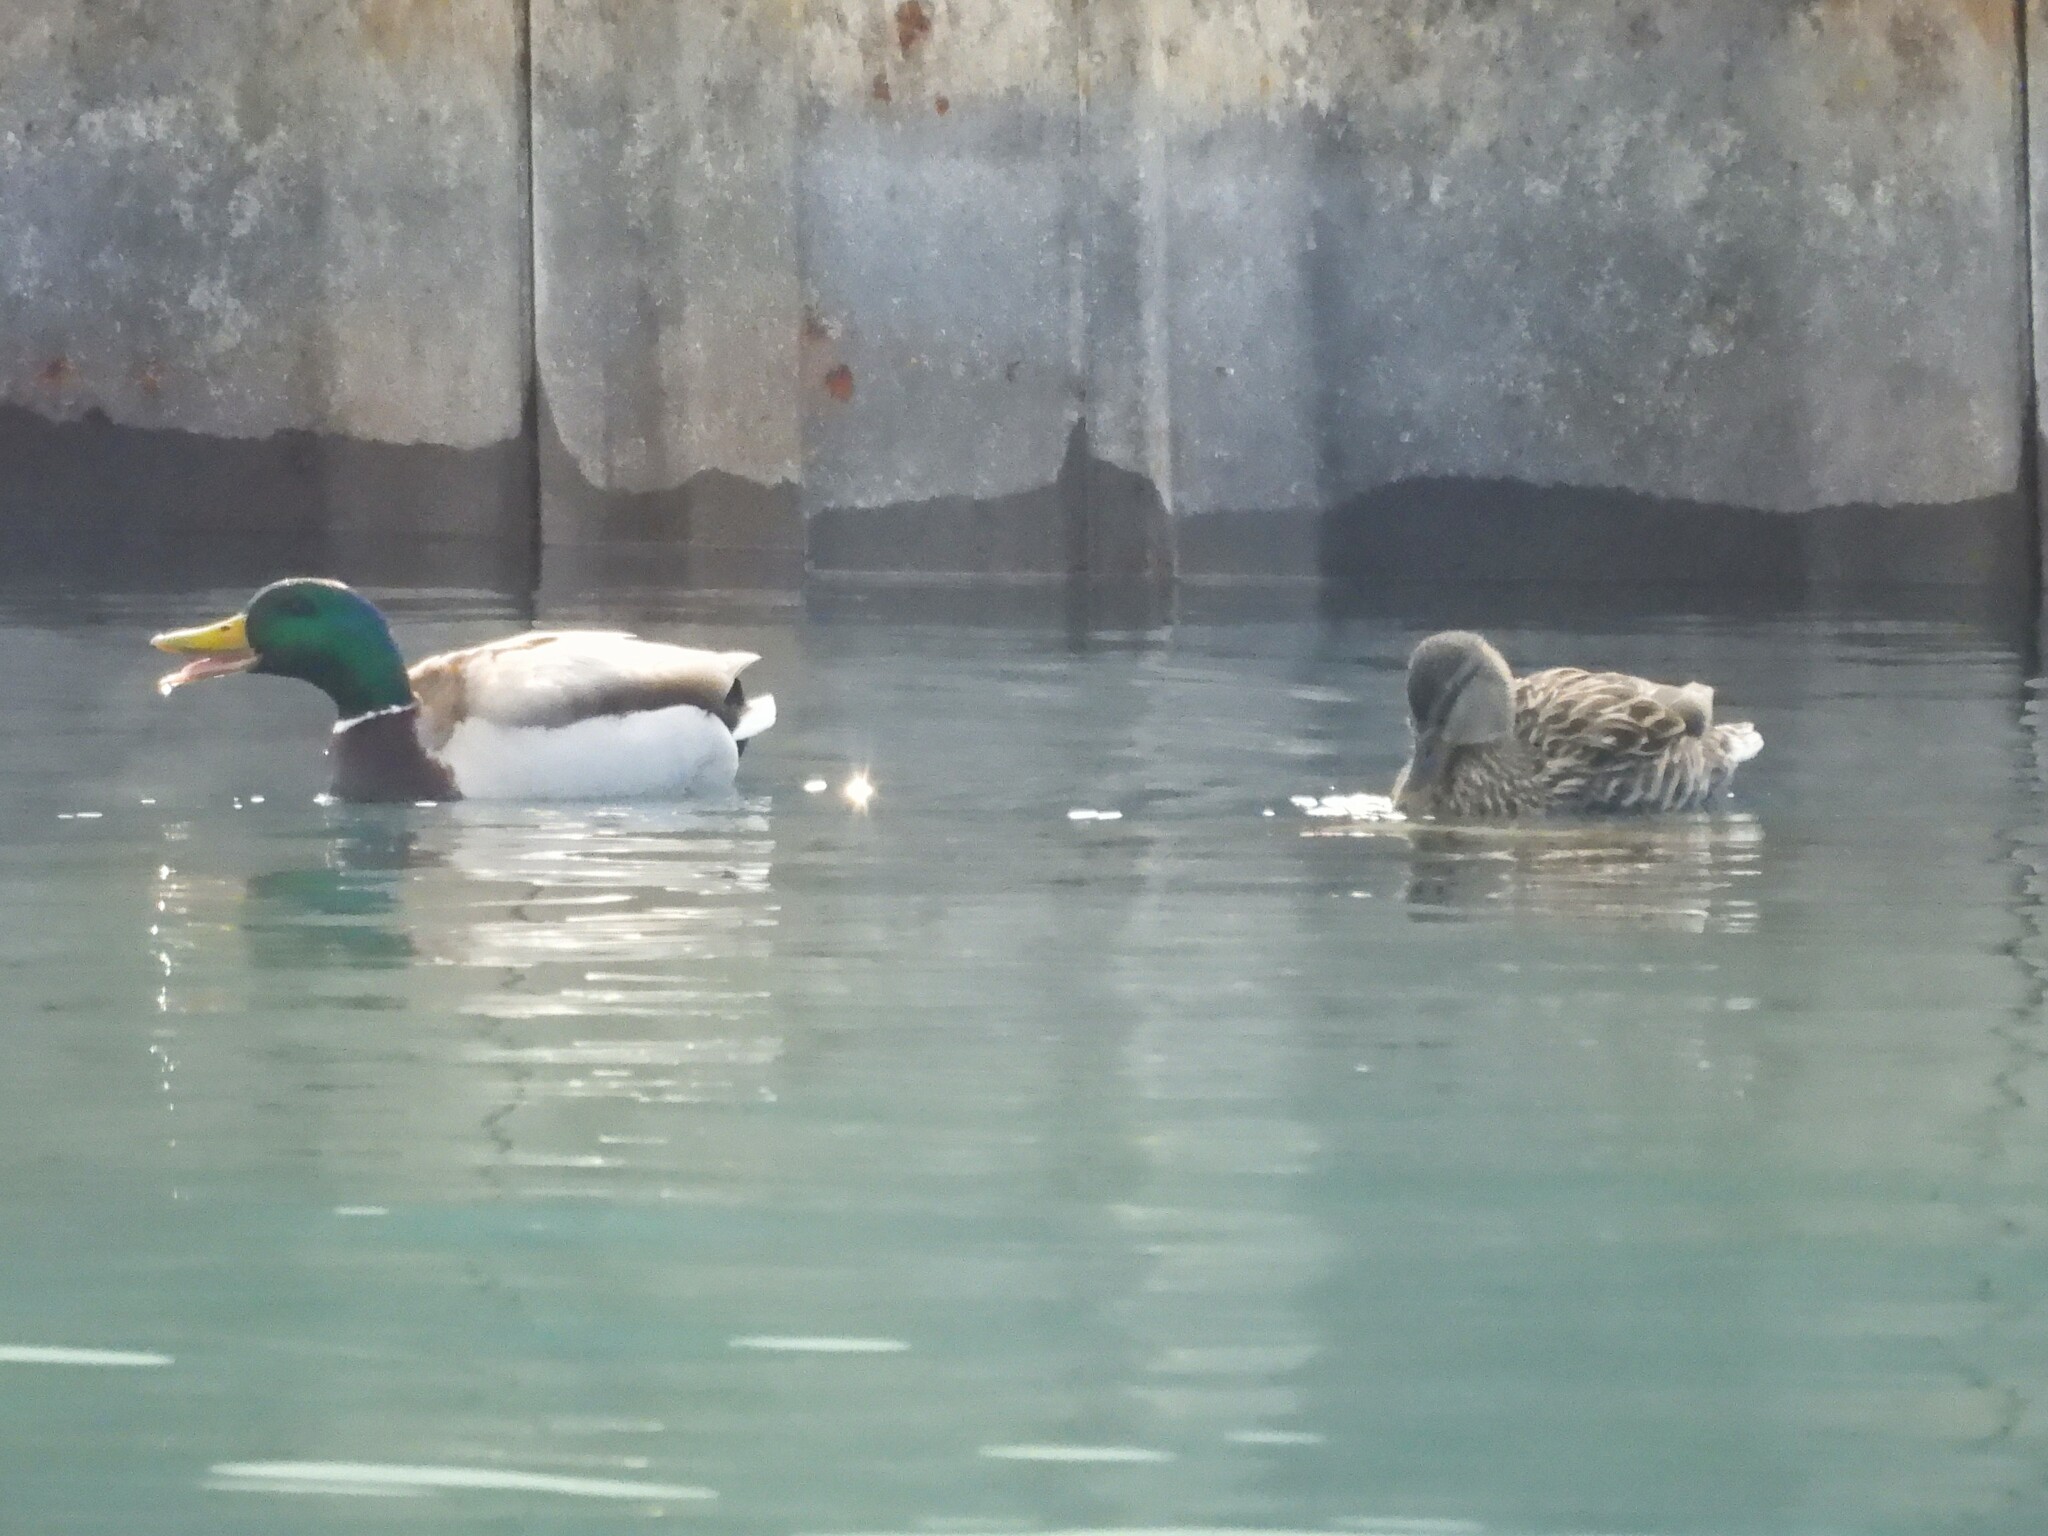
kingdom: Animalia
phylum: Chordata
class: Aves
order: Anseriformes
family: Anatidae
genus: Anas
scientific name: Anas platyrhynchos
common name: Mallard
